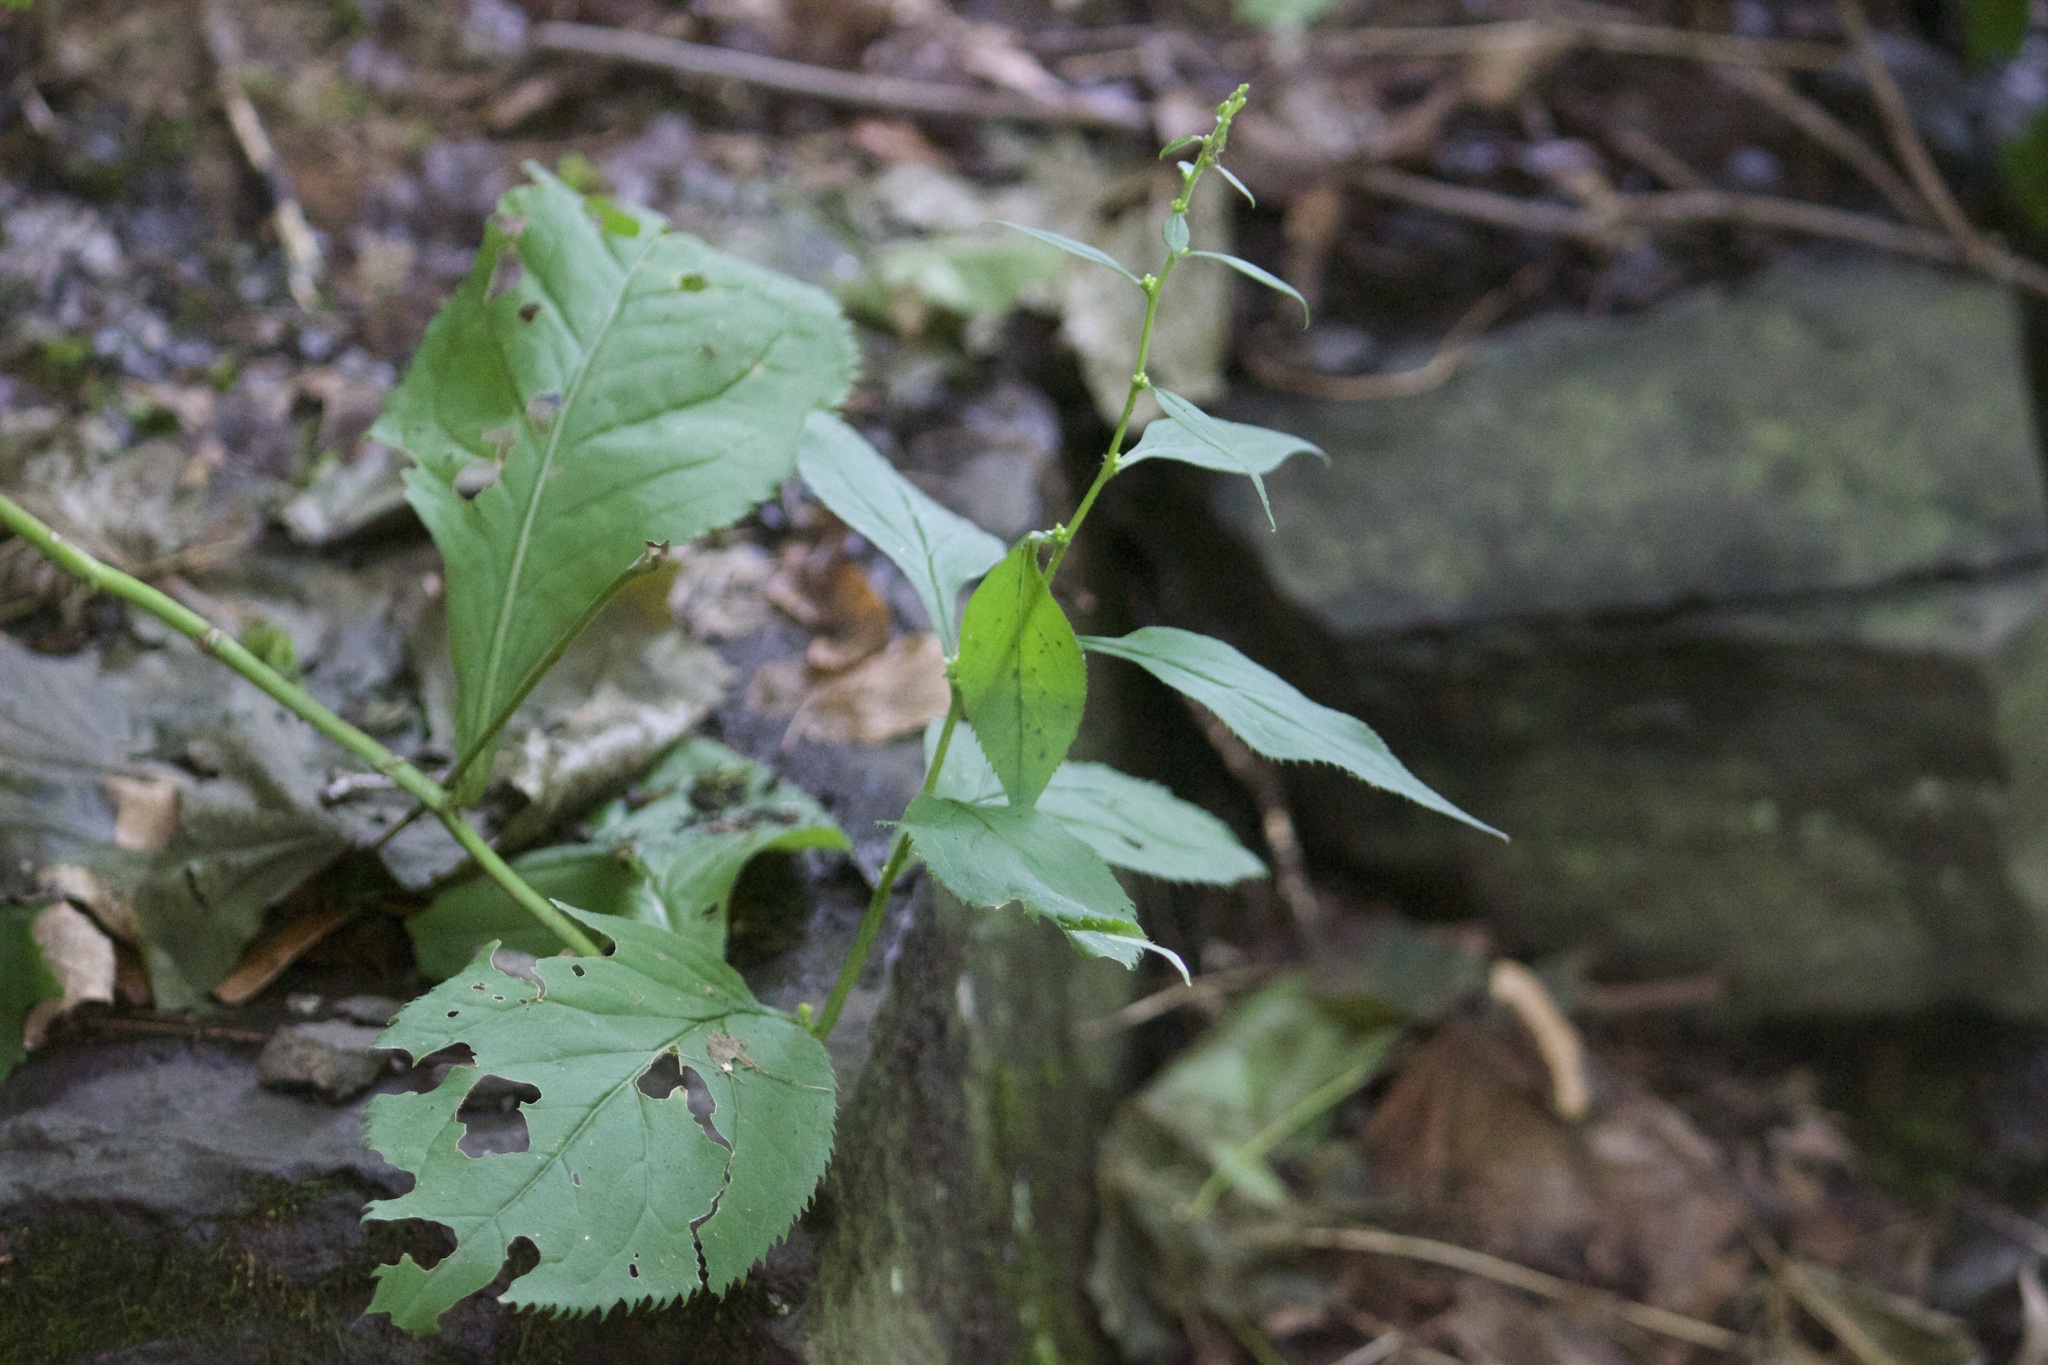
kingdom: Plantae
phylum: Tracheophyta
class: Magnoliopsida
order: Asterales
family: Asteraceae
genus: Solidago
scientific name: Solidago flexicaulis
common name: Zig-zag goldenrod
